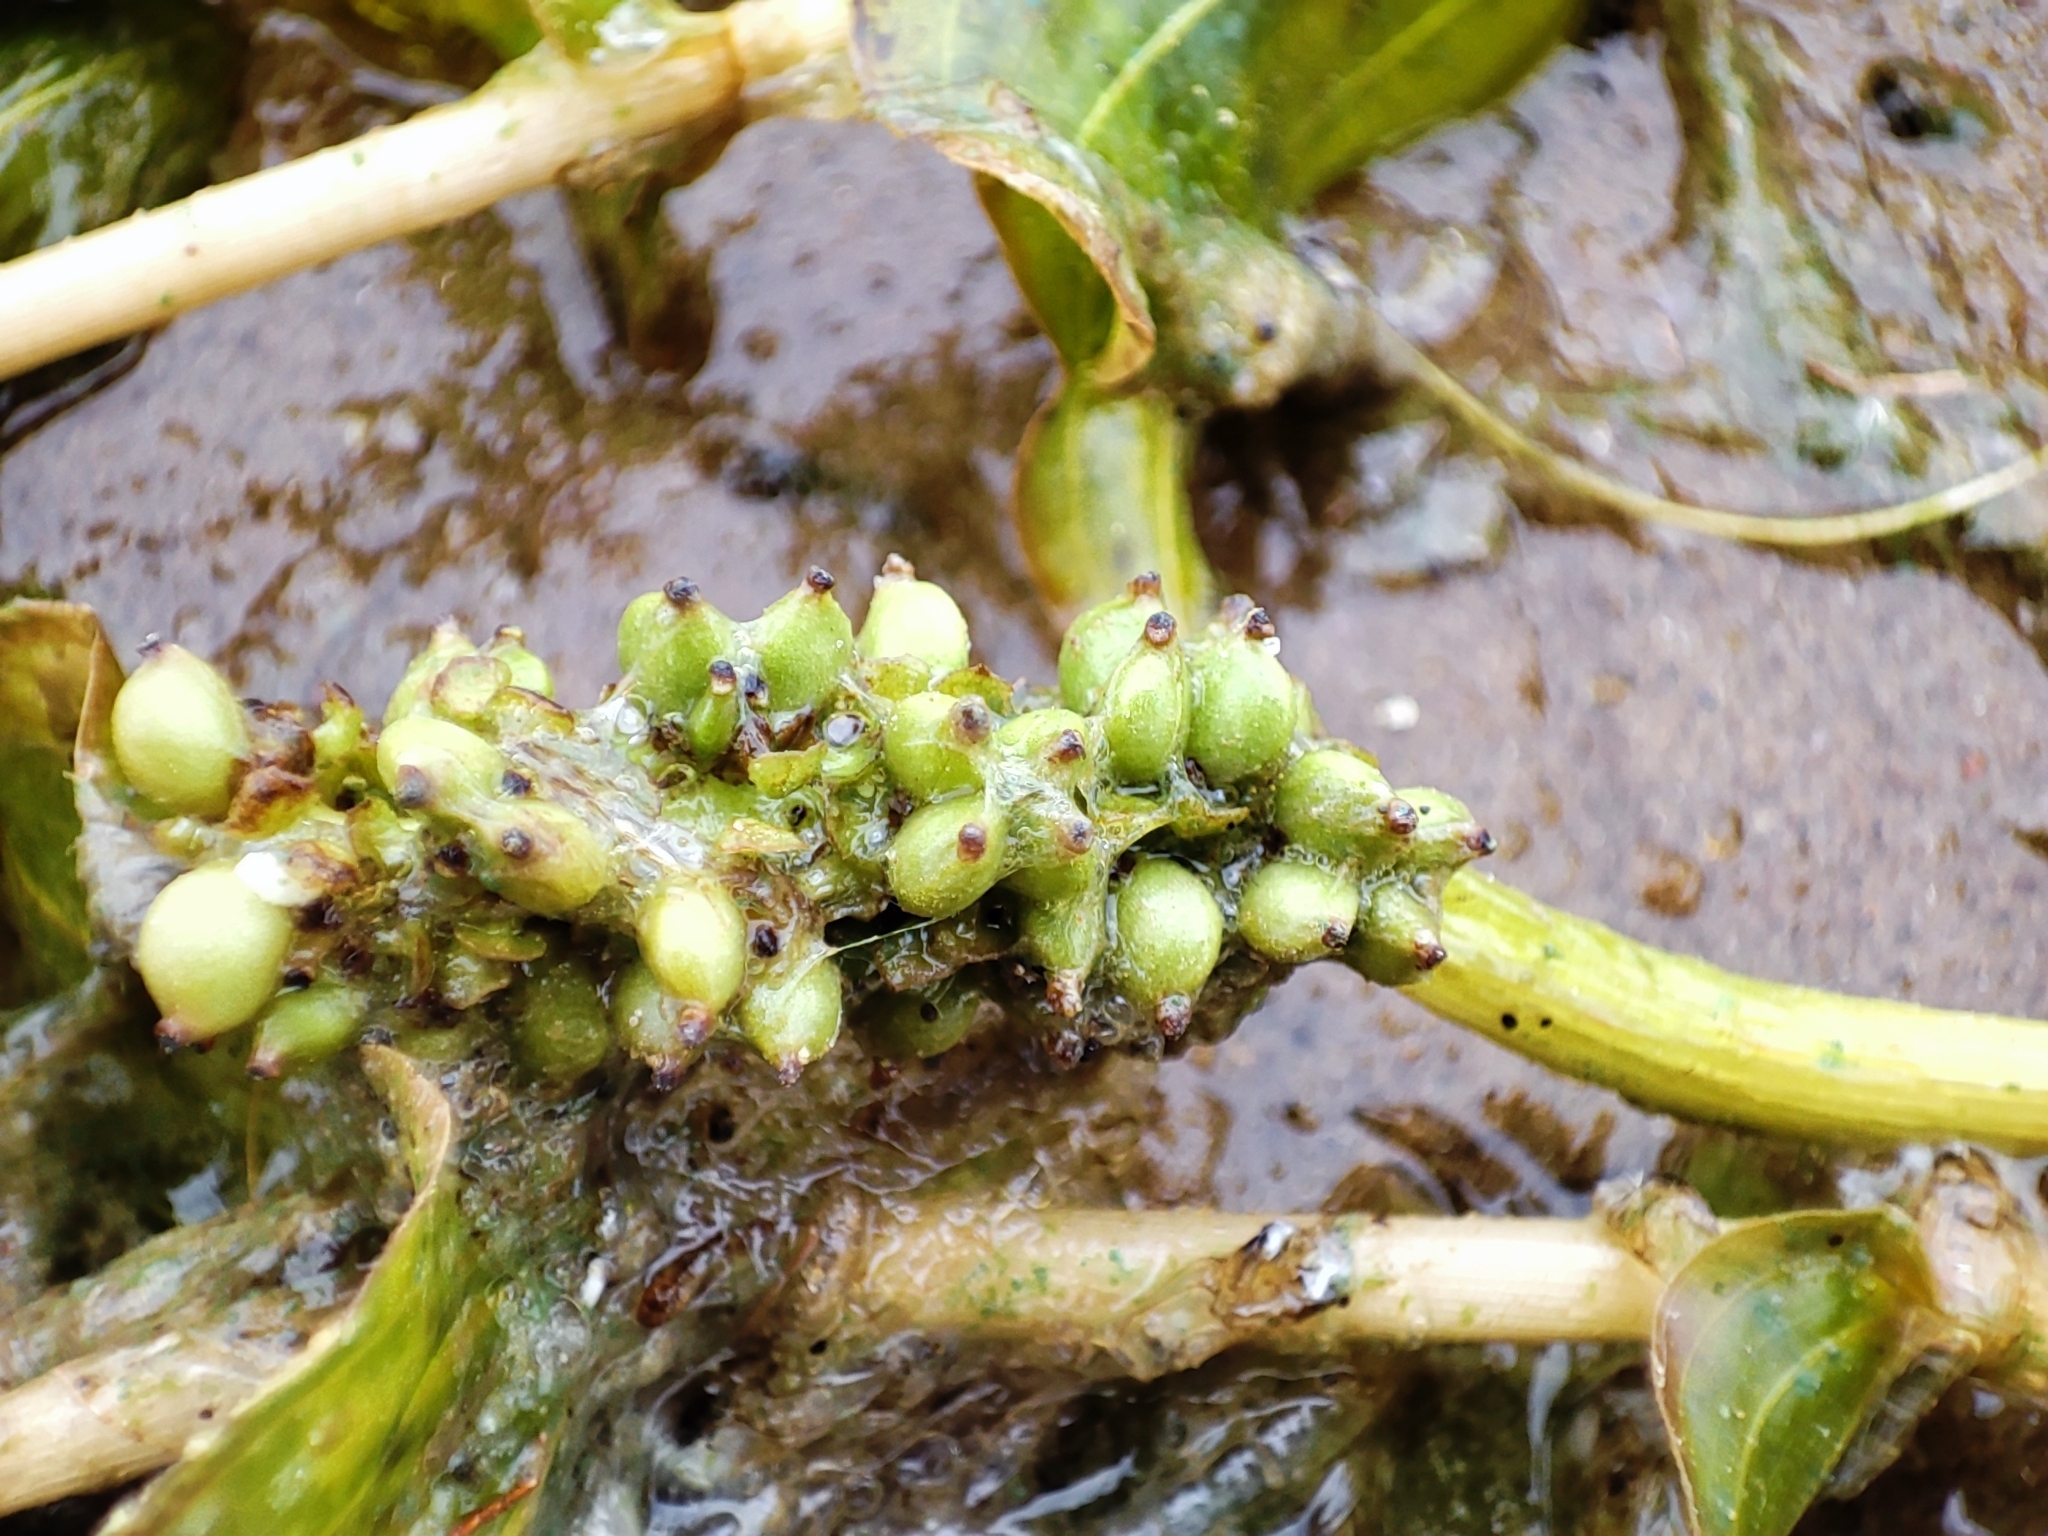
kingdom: Plantae
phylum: Tracheophyta
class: Liliopsida
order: Alismatales
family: Potamogetonaceae
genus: Potamogeton
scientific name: Potamogeton perfoliatus
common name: Perfoliate pondweed
